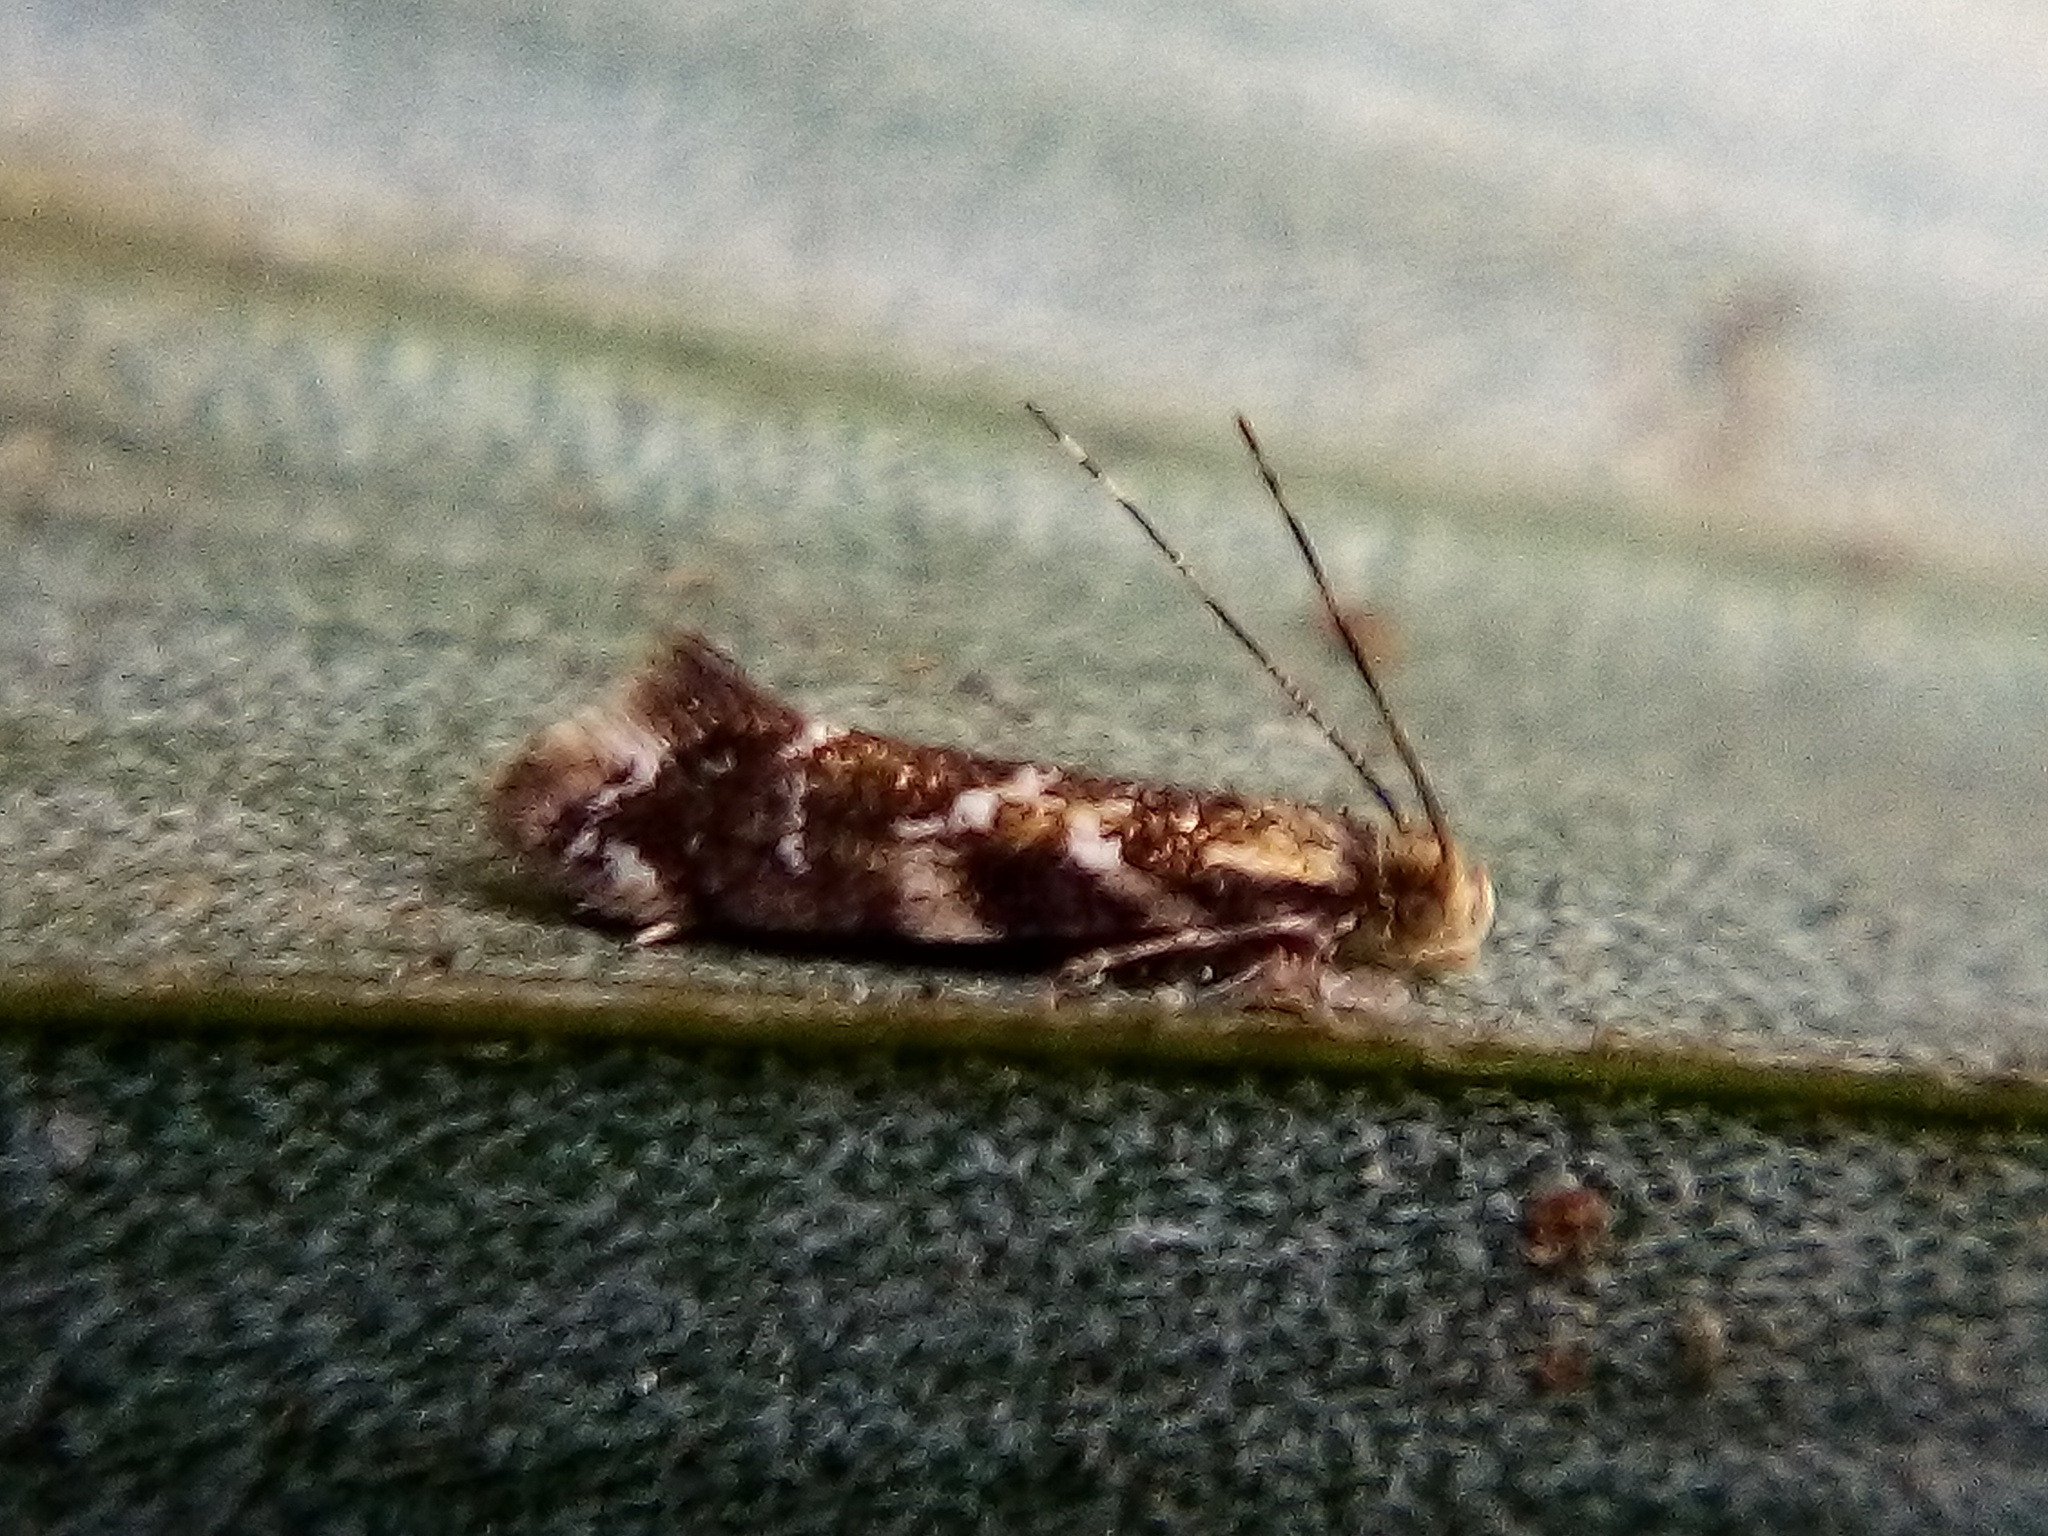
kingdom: Animalia
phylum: Arthropoda
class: Insecta
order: Lepidoptera
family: Dryadaulidae
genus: Dryadaula
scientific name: Dryadaula pactolia
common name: Cellar clothes
